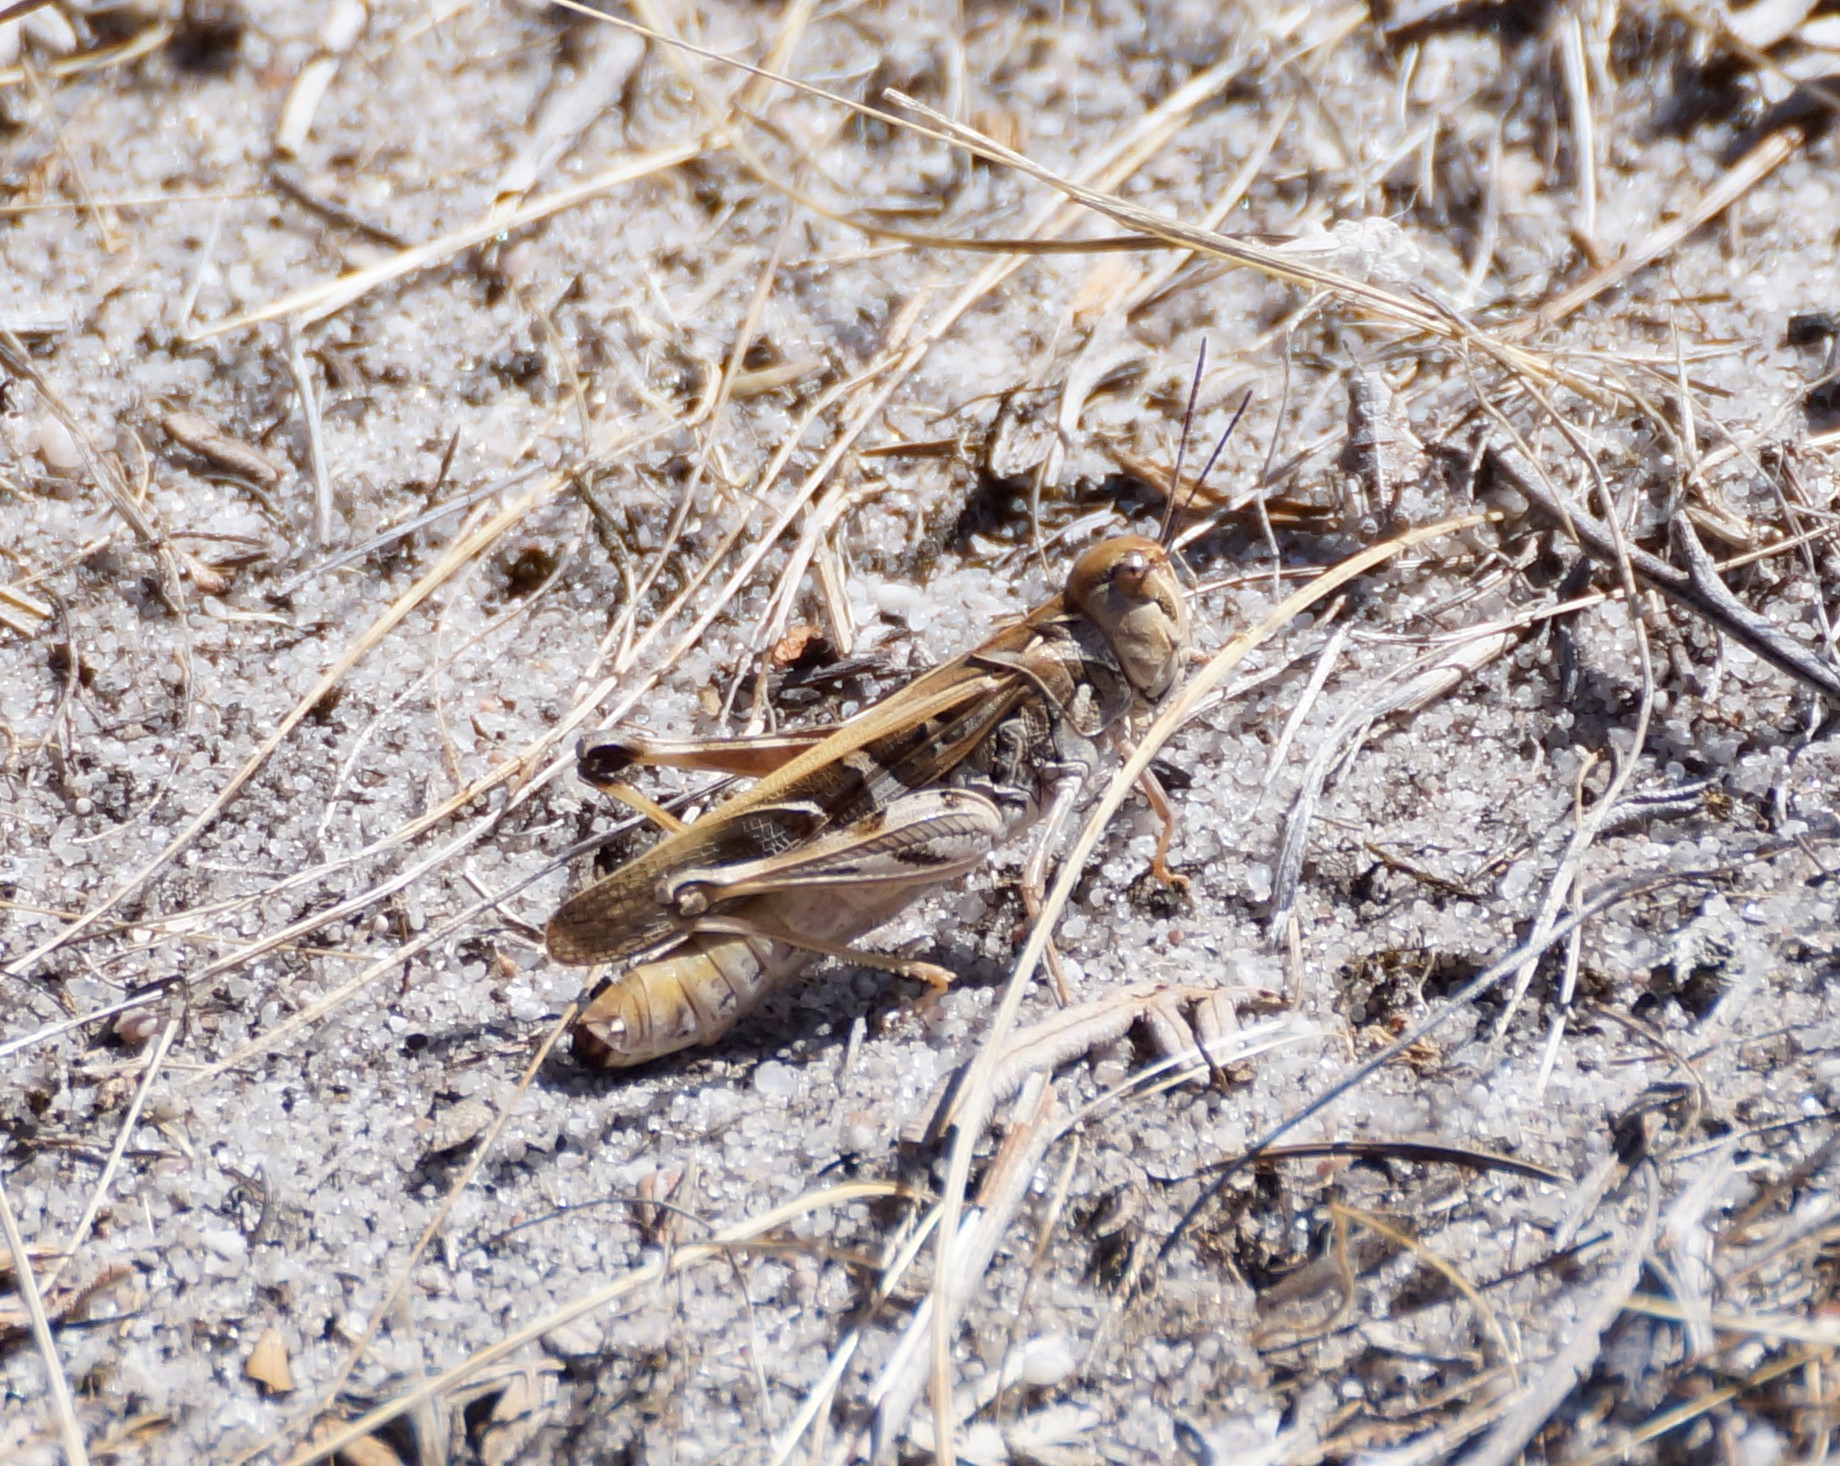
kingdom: Animalia
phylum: Arthropoda
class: Insecta
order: Orthoptera
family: Acrididae
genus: Oedaleus
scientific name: Oedaleus australis
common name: Eastern oedaleus
